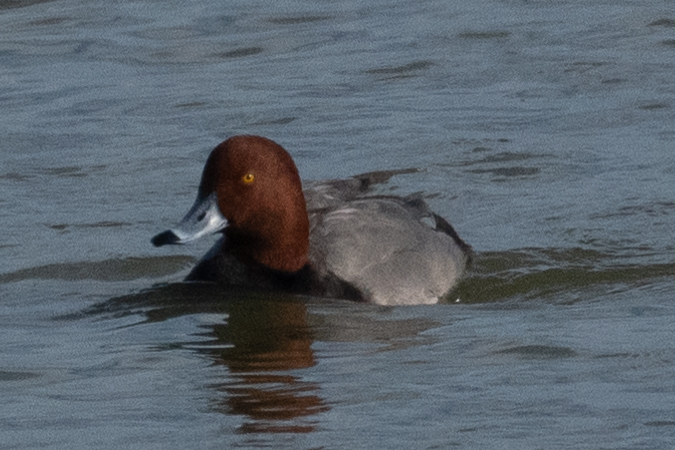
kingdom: Animalia
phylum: Chordata
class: Aves
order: Anseriformes
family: Anatidae
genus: Aythya
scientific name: Aythya americana
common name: Redhead
